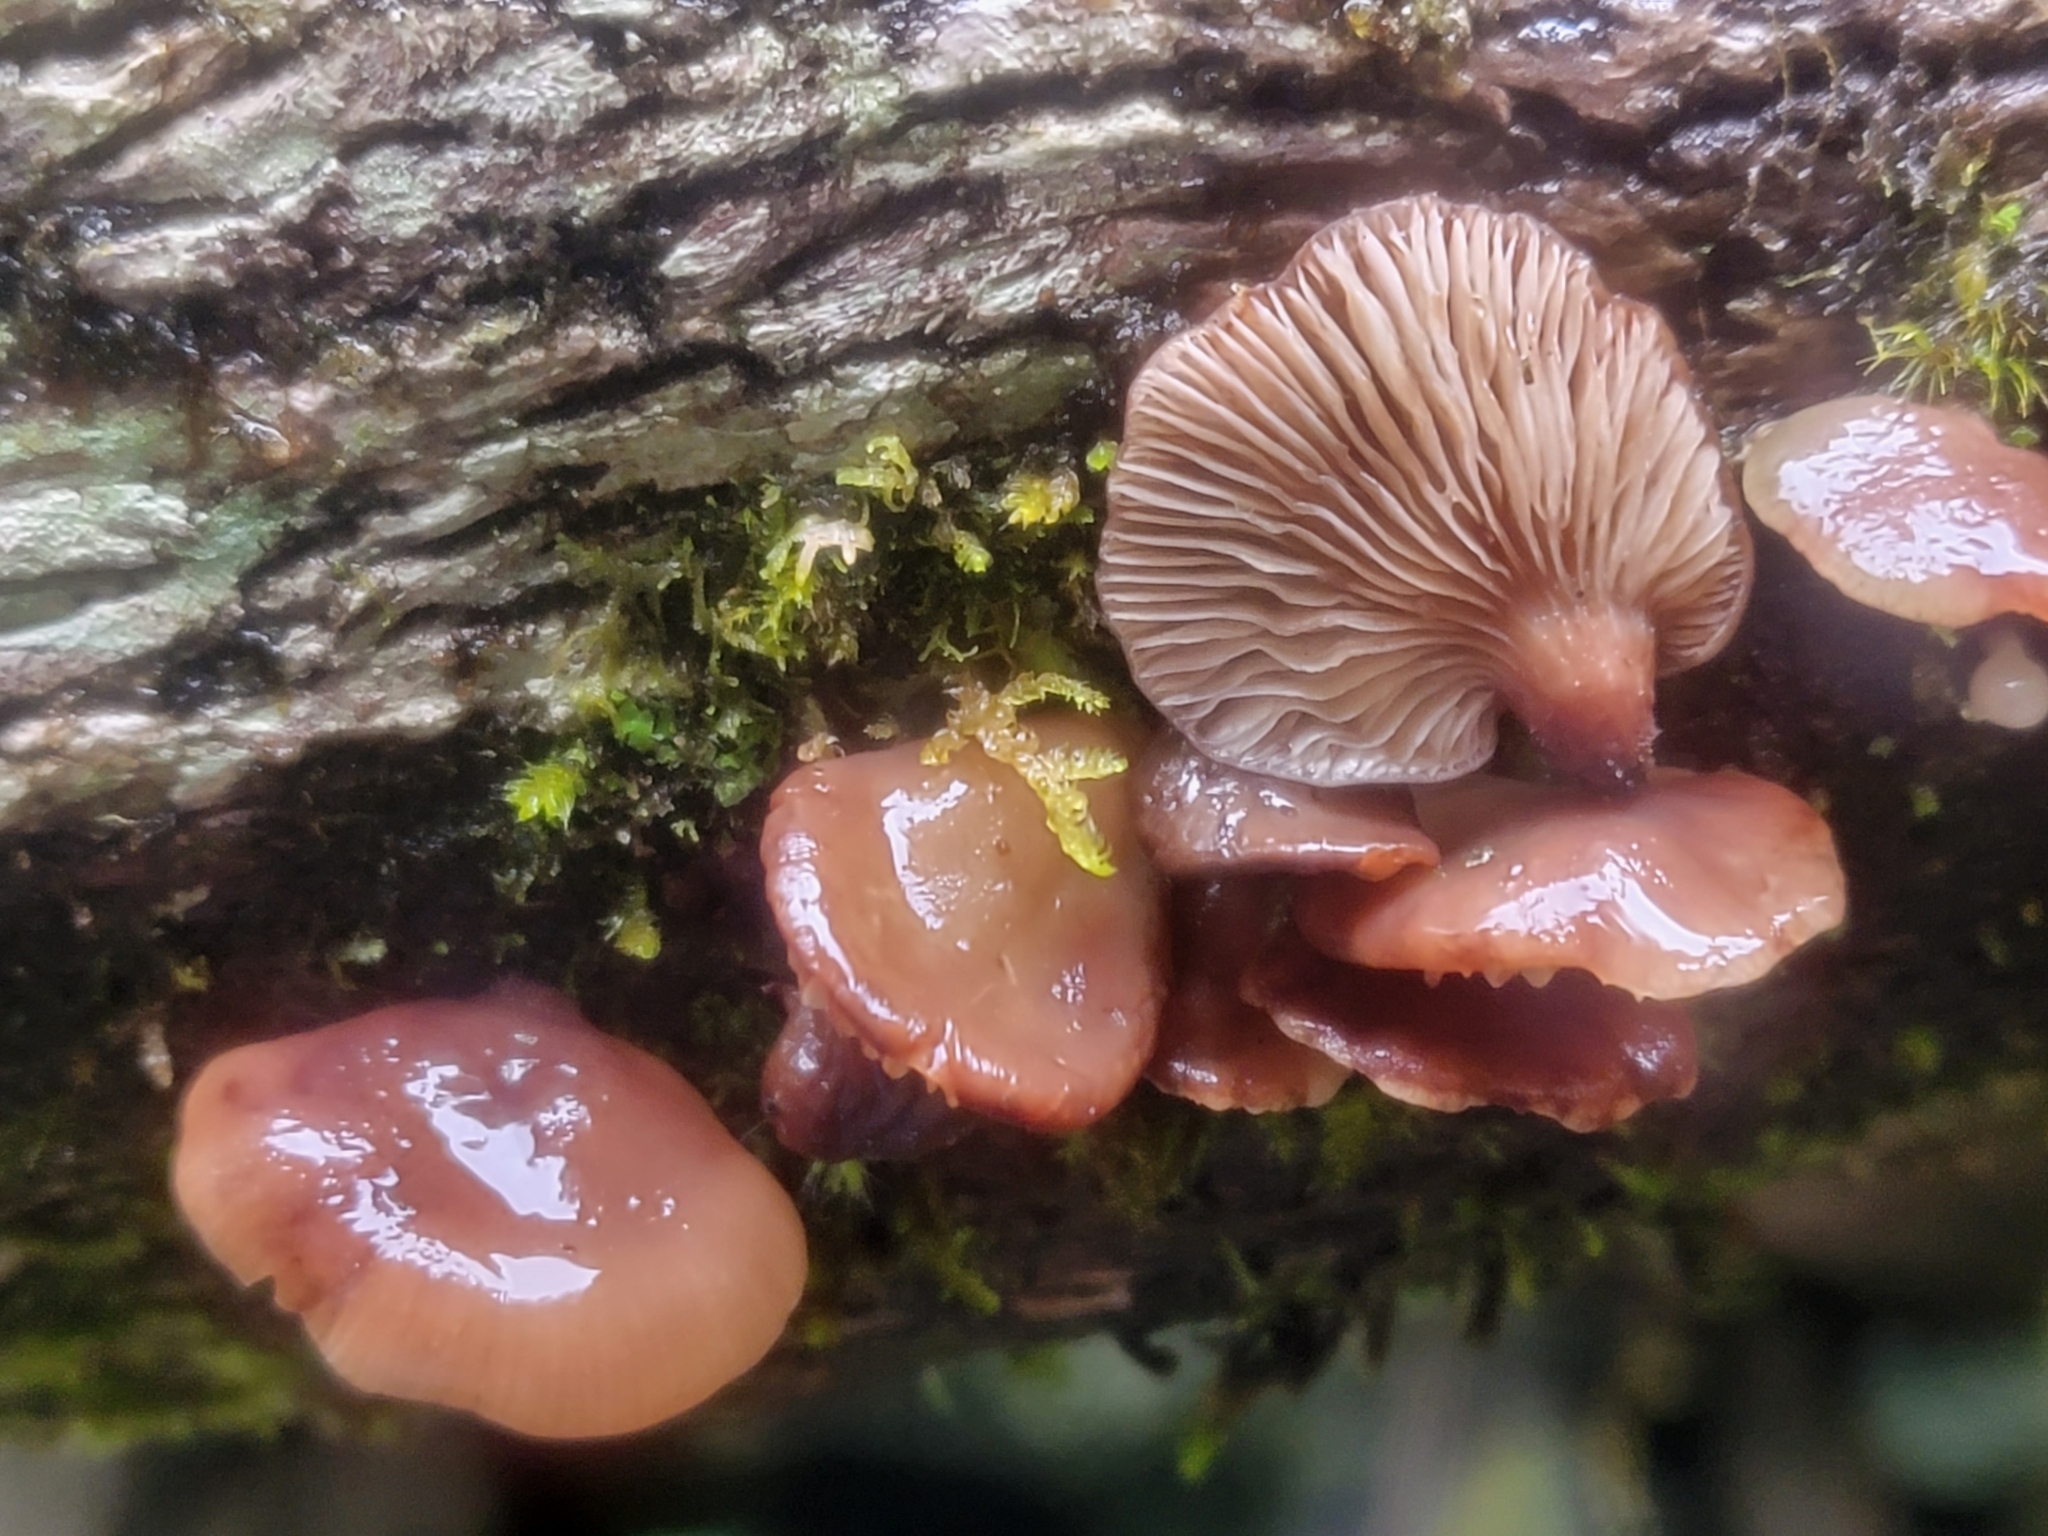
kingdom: Fungi
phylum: Basidiomycota
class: Agaricomycetes
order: Agaricales
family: Mycenaceae
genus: Panellus
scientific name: Panellus longinquus
